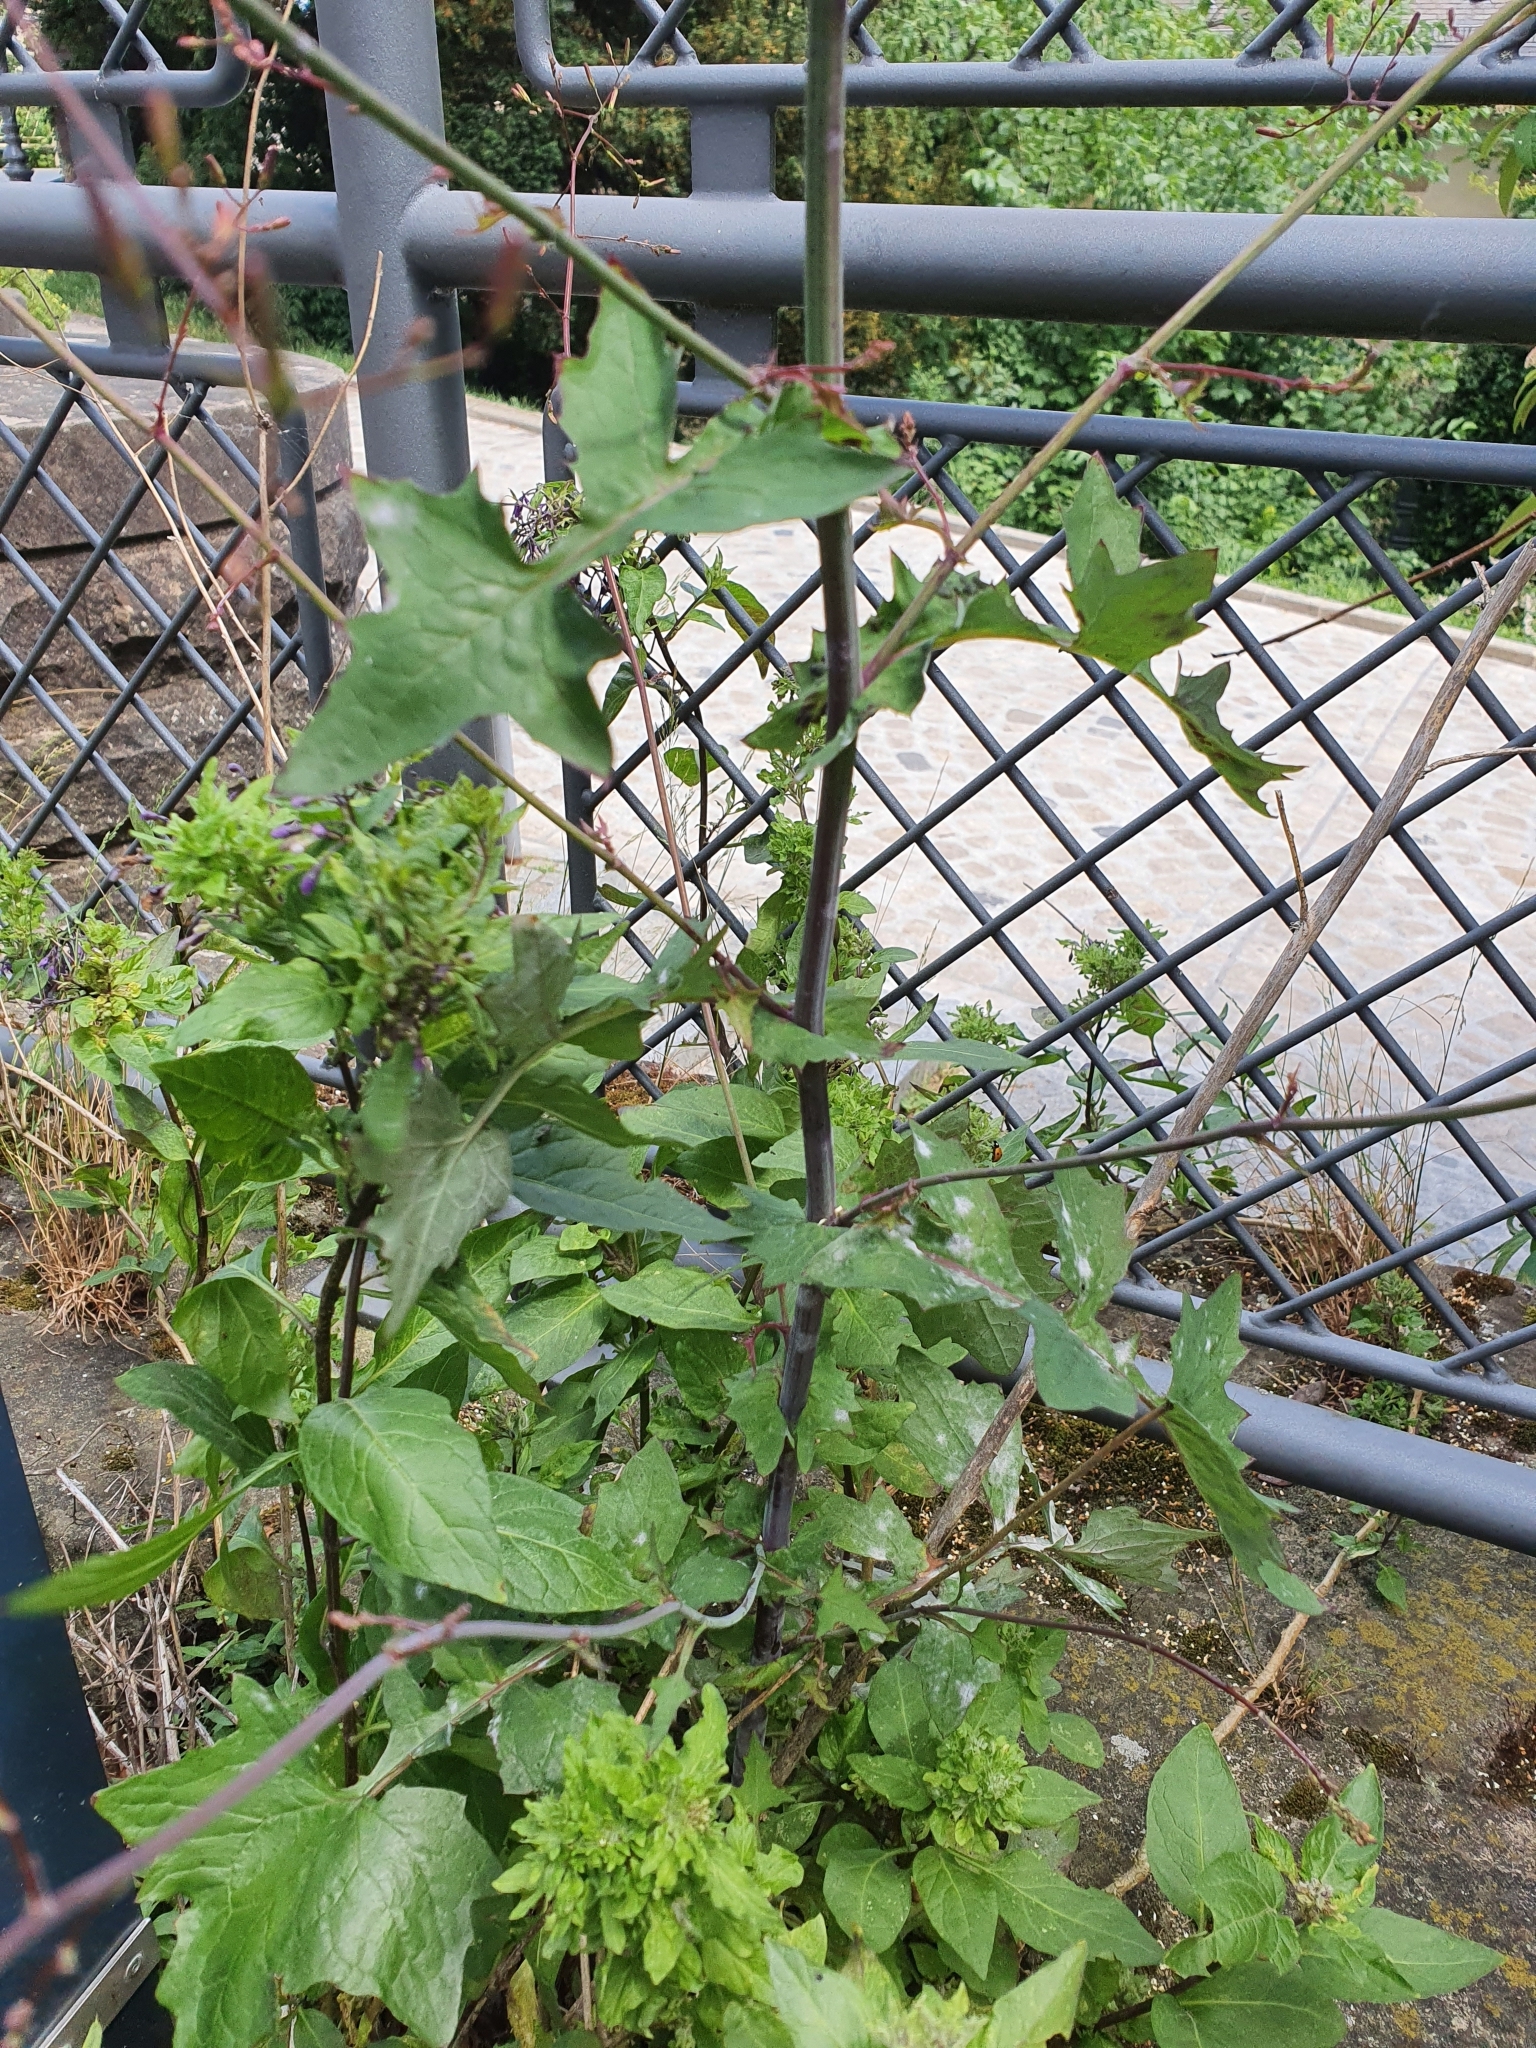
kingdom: Plantae
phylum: Tracheophyta
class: Magnoliopsida
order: Asterales
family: Asteraceae
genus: Mycelis
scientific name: Mycelis muralis
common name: Wall lettuce
